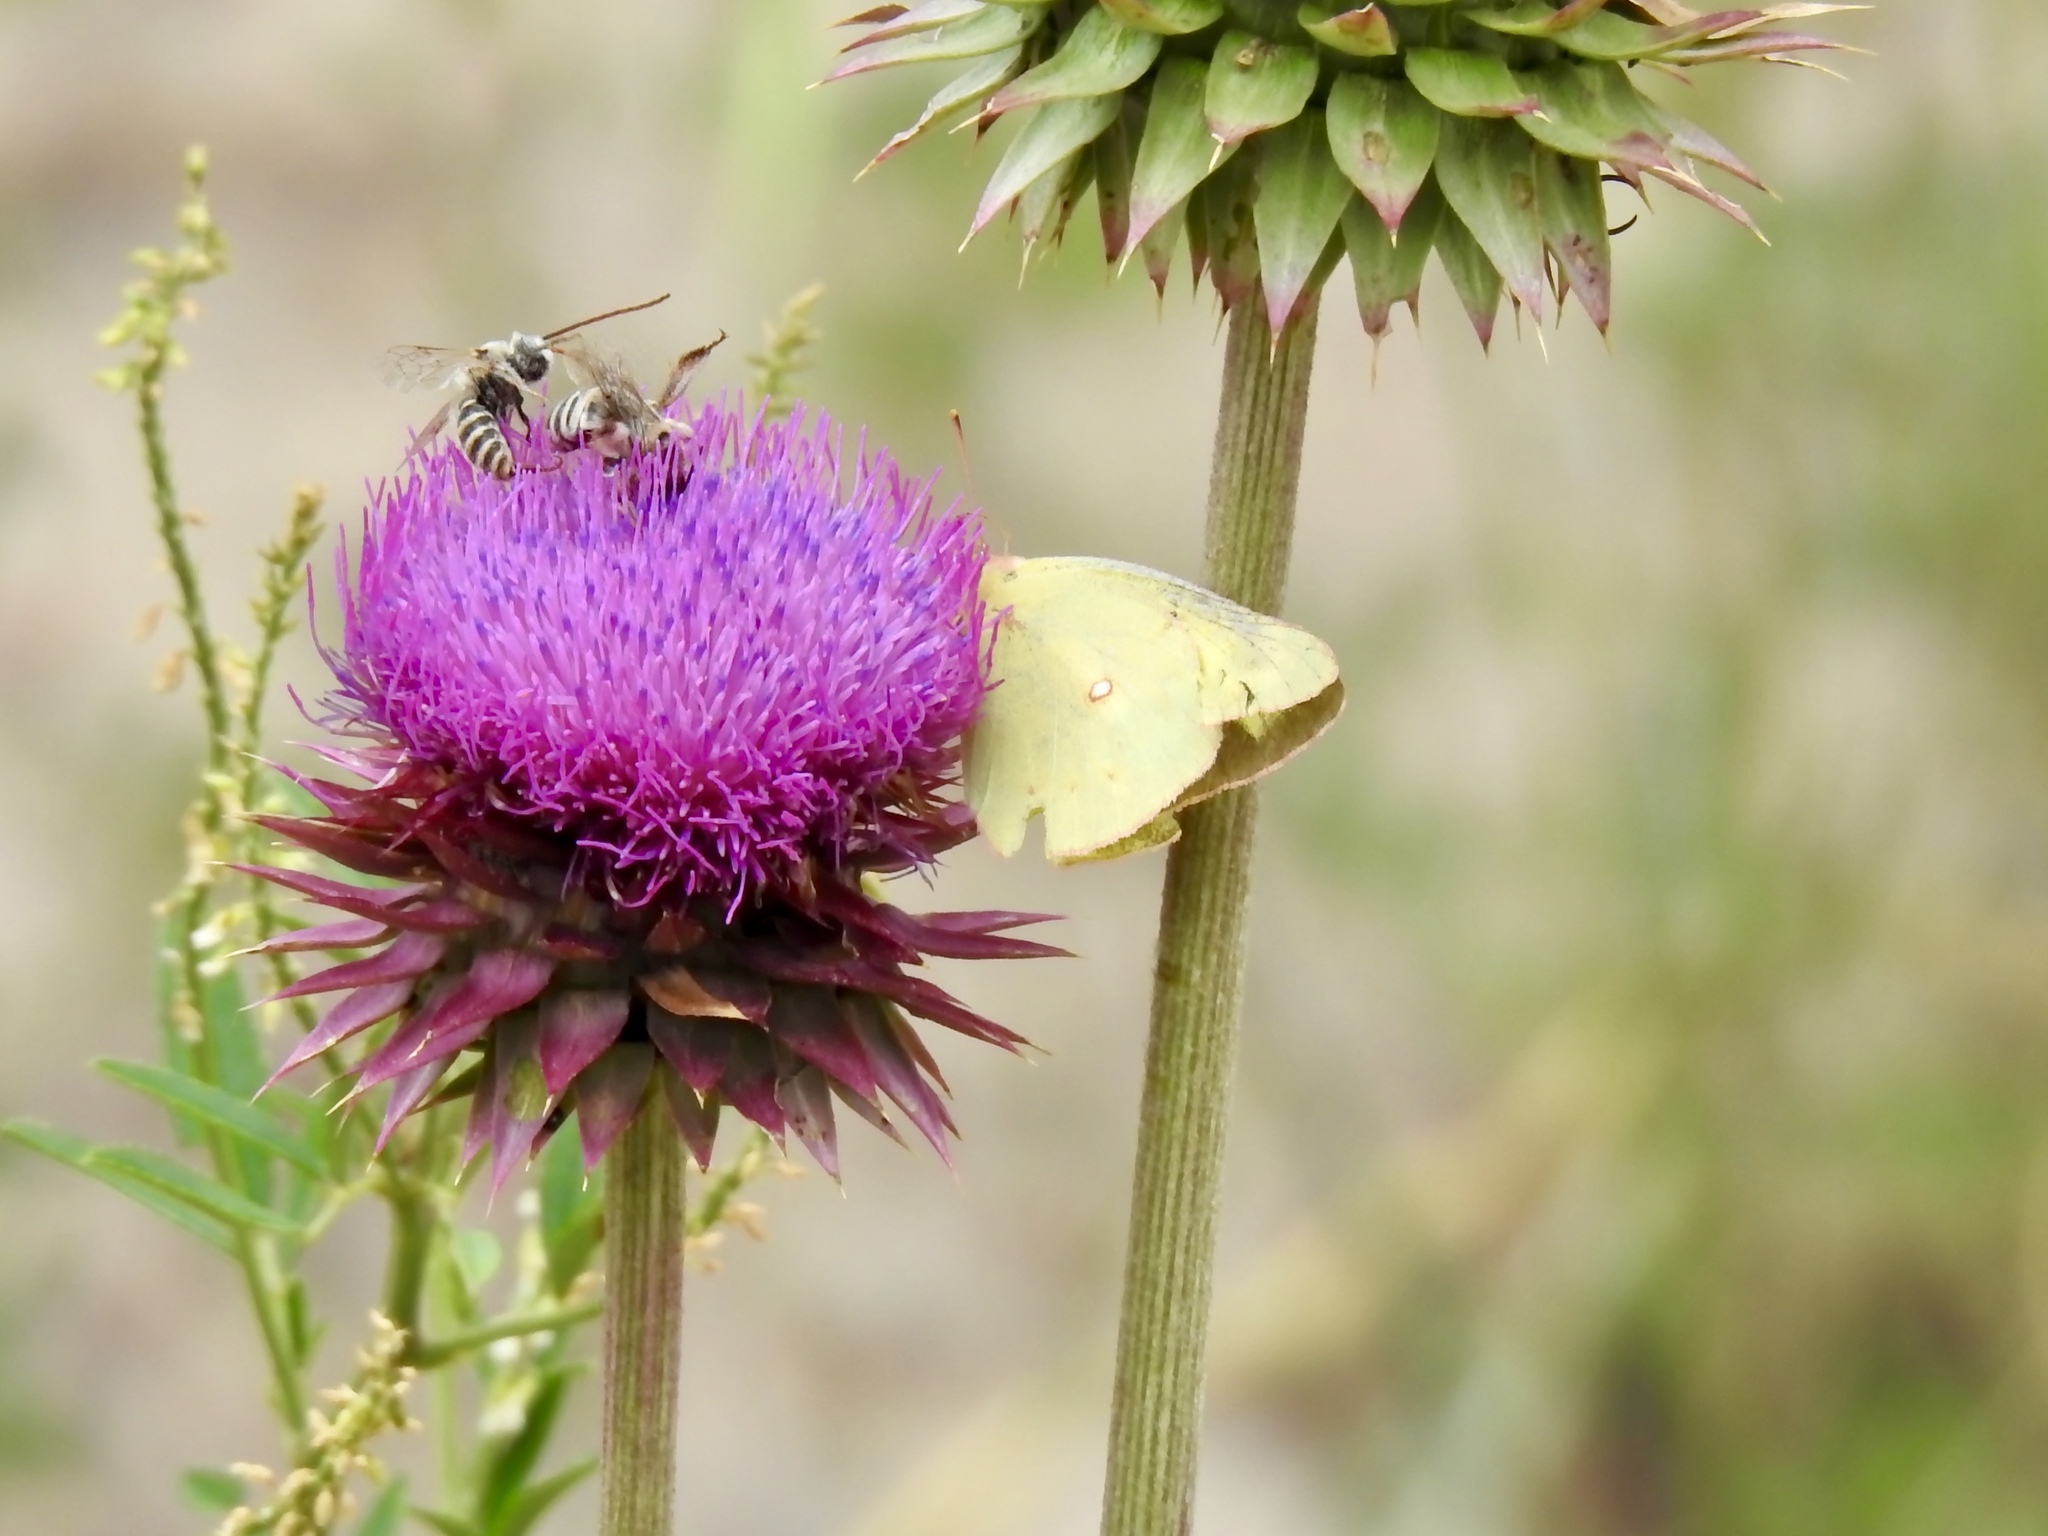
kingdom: Animalia
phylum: Arthropoda
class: Insecta
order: Lepidoptera
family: Pieridae
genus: Colias
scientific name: Colias eurytheme
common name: Alfalfa butterfly
